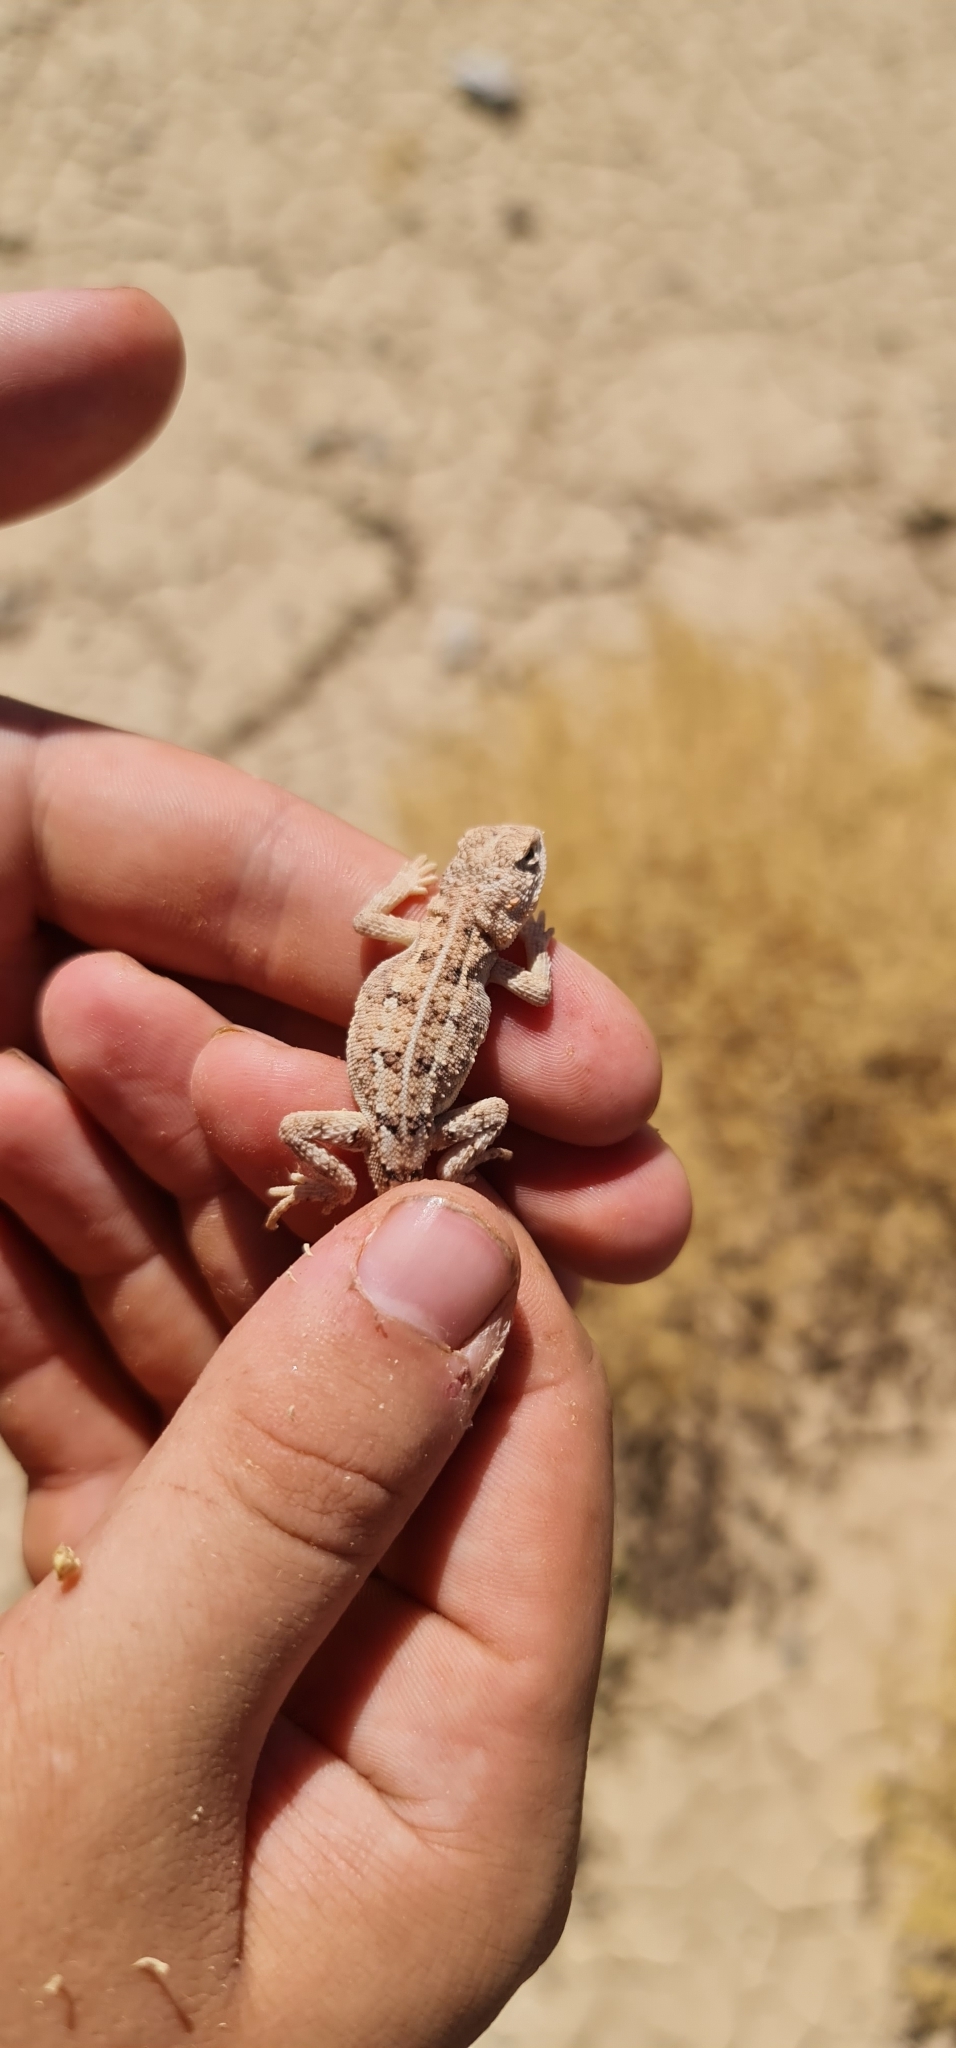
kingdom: Animalia
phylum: Chordata
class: Squamata
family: Agamidae
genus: Tympanocryptis
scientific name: Tympanocryptis tetraporophora
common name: Eyrean earless dragon
